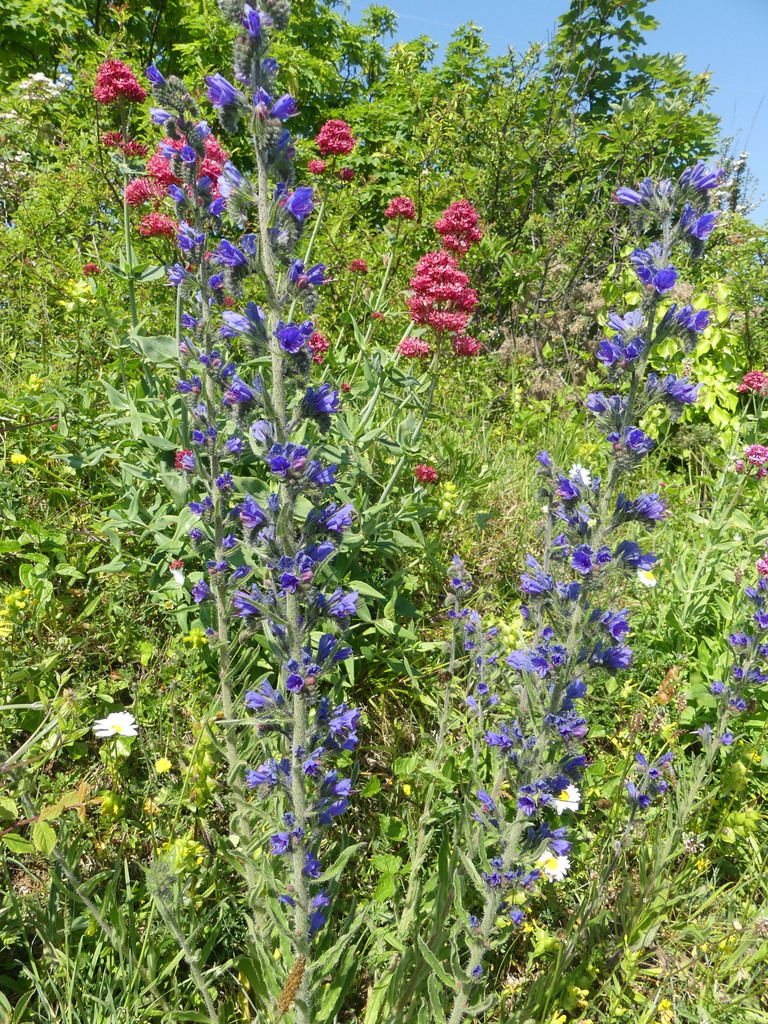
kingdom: Plantae
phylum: Tracheophyta
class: Magnoliopsida
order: Boraginales
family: Boraginaceae
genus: Echium
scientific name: Echium vulgare
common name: Common viper's bugloss
